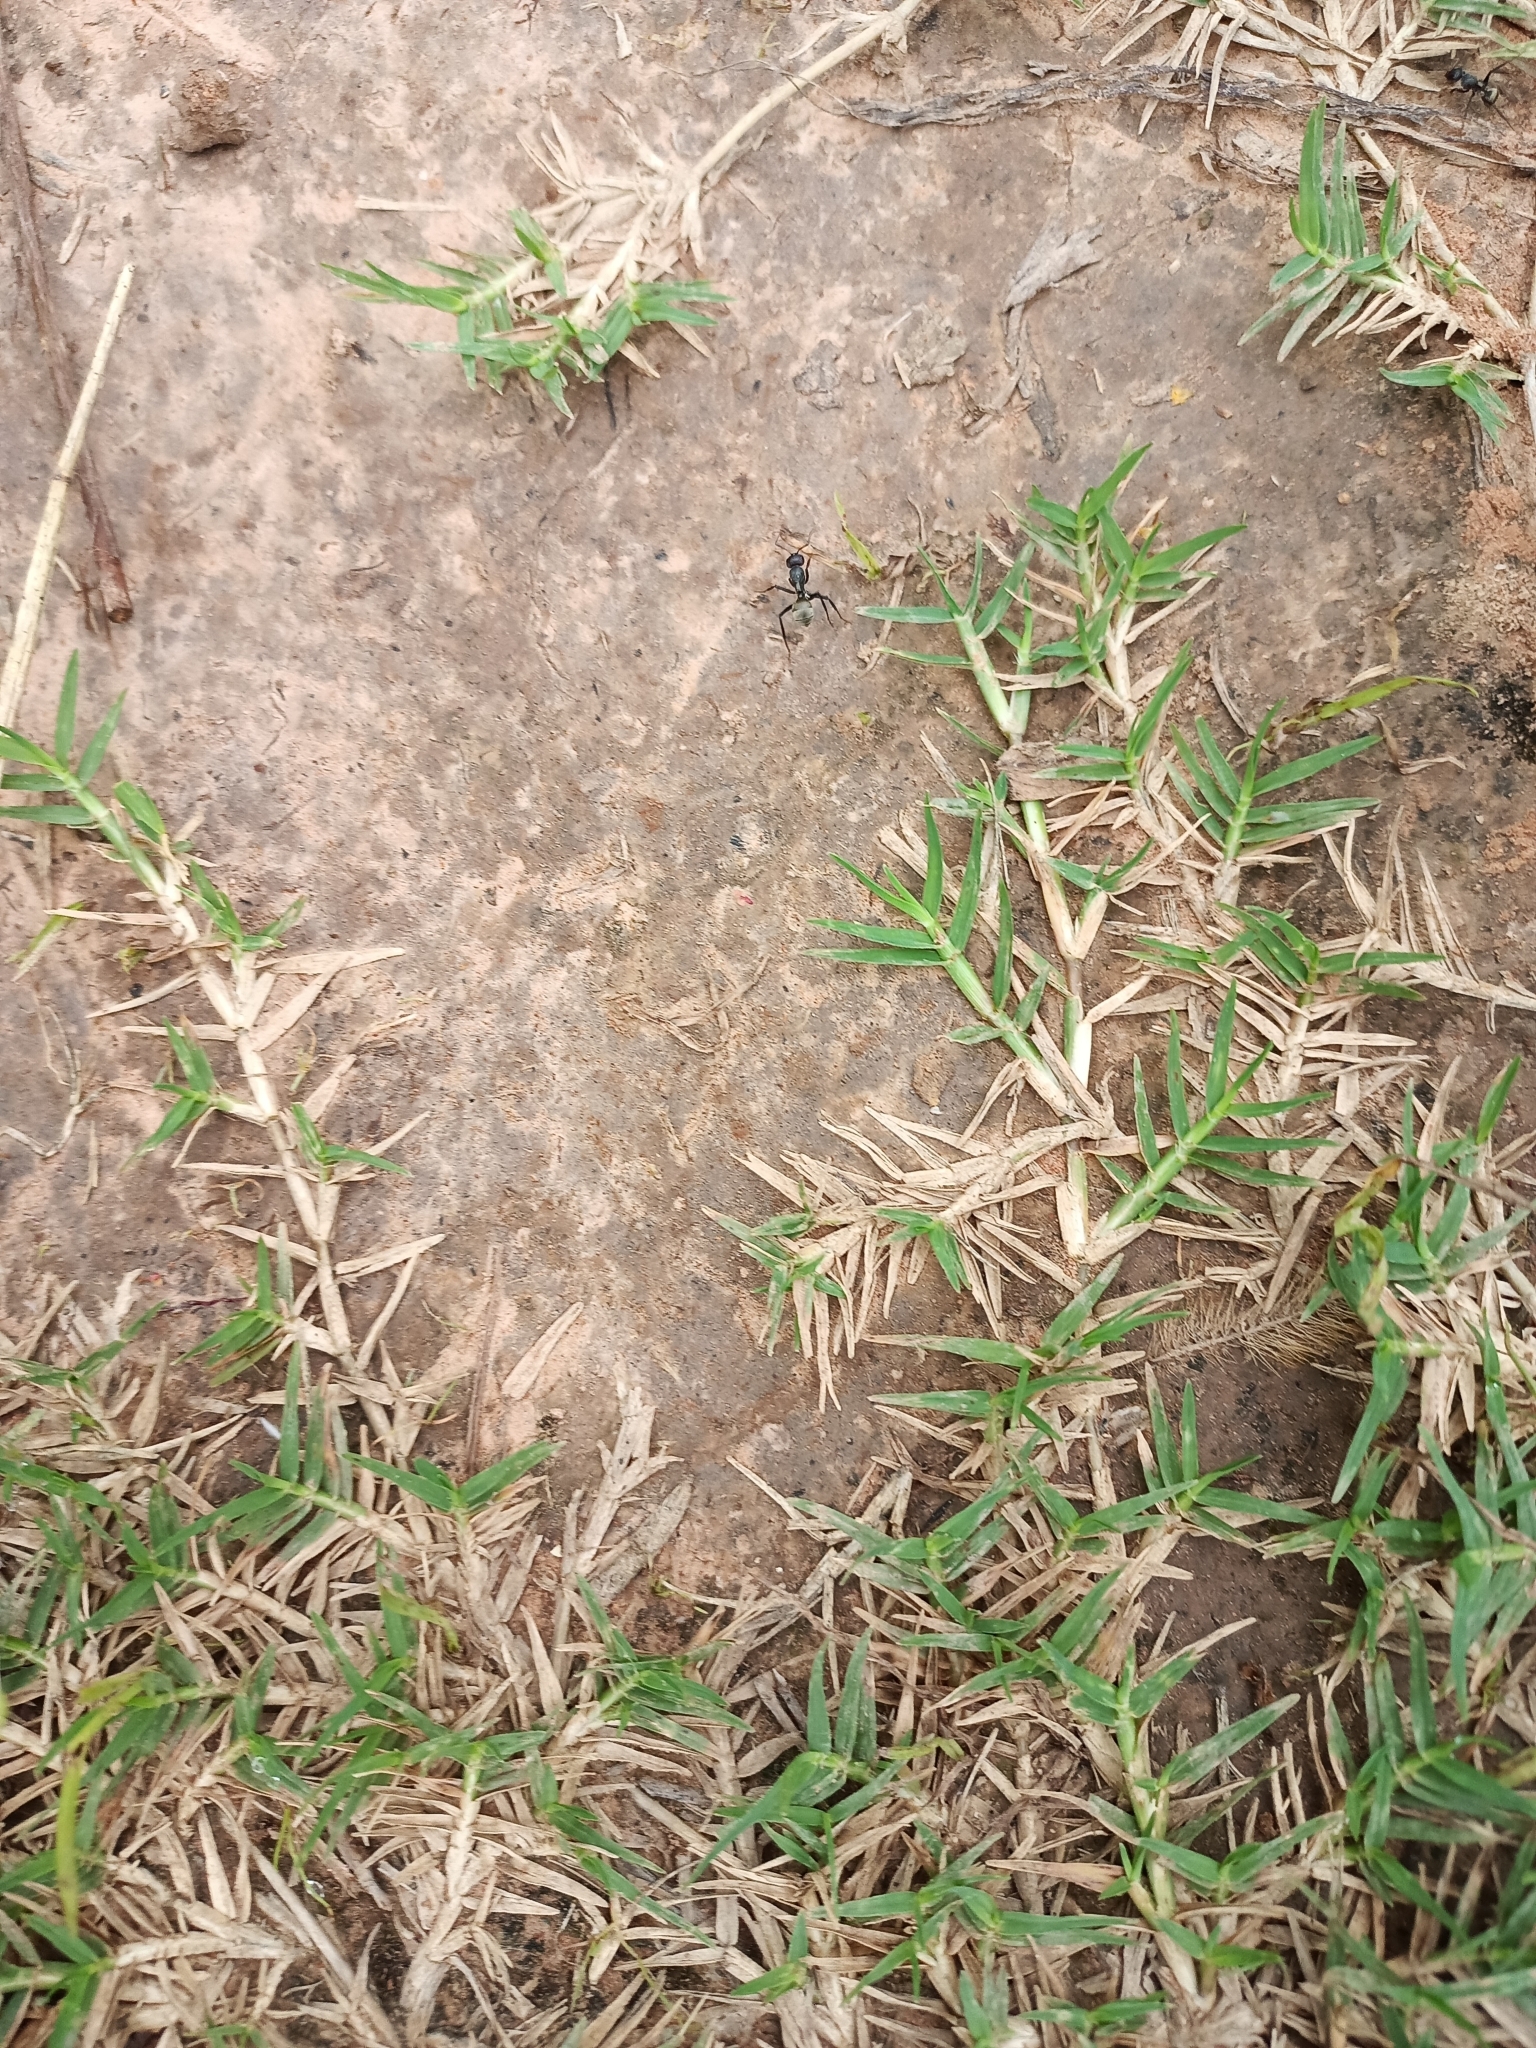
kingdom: Animalia
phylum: Arthropoda
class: Insecta
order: Hymenoptera
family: Formicidae
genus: Camponotus
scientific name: Camponotus sericeus
